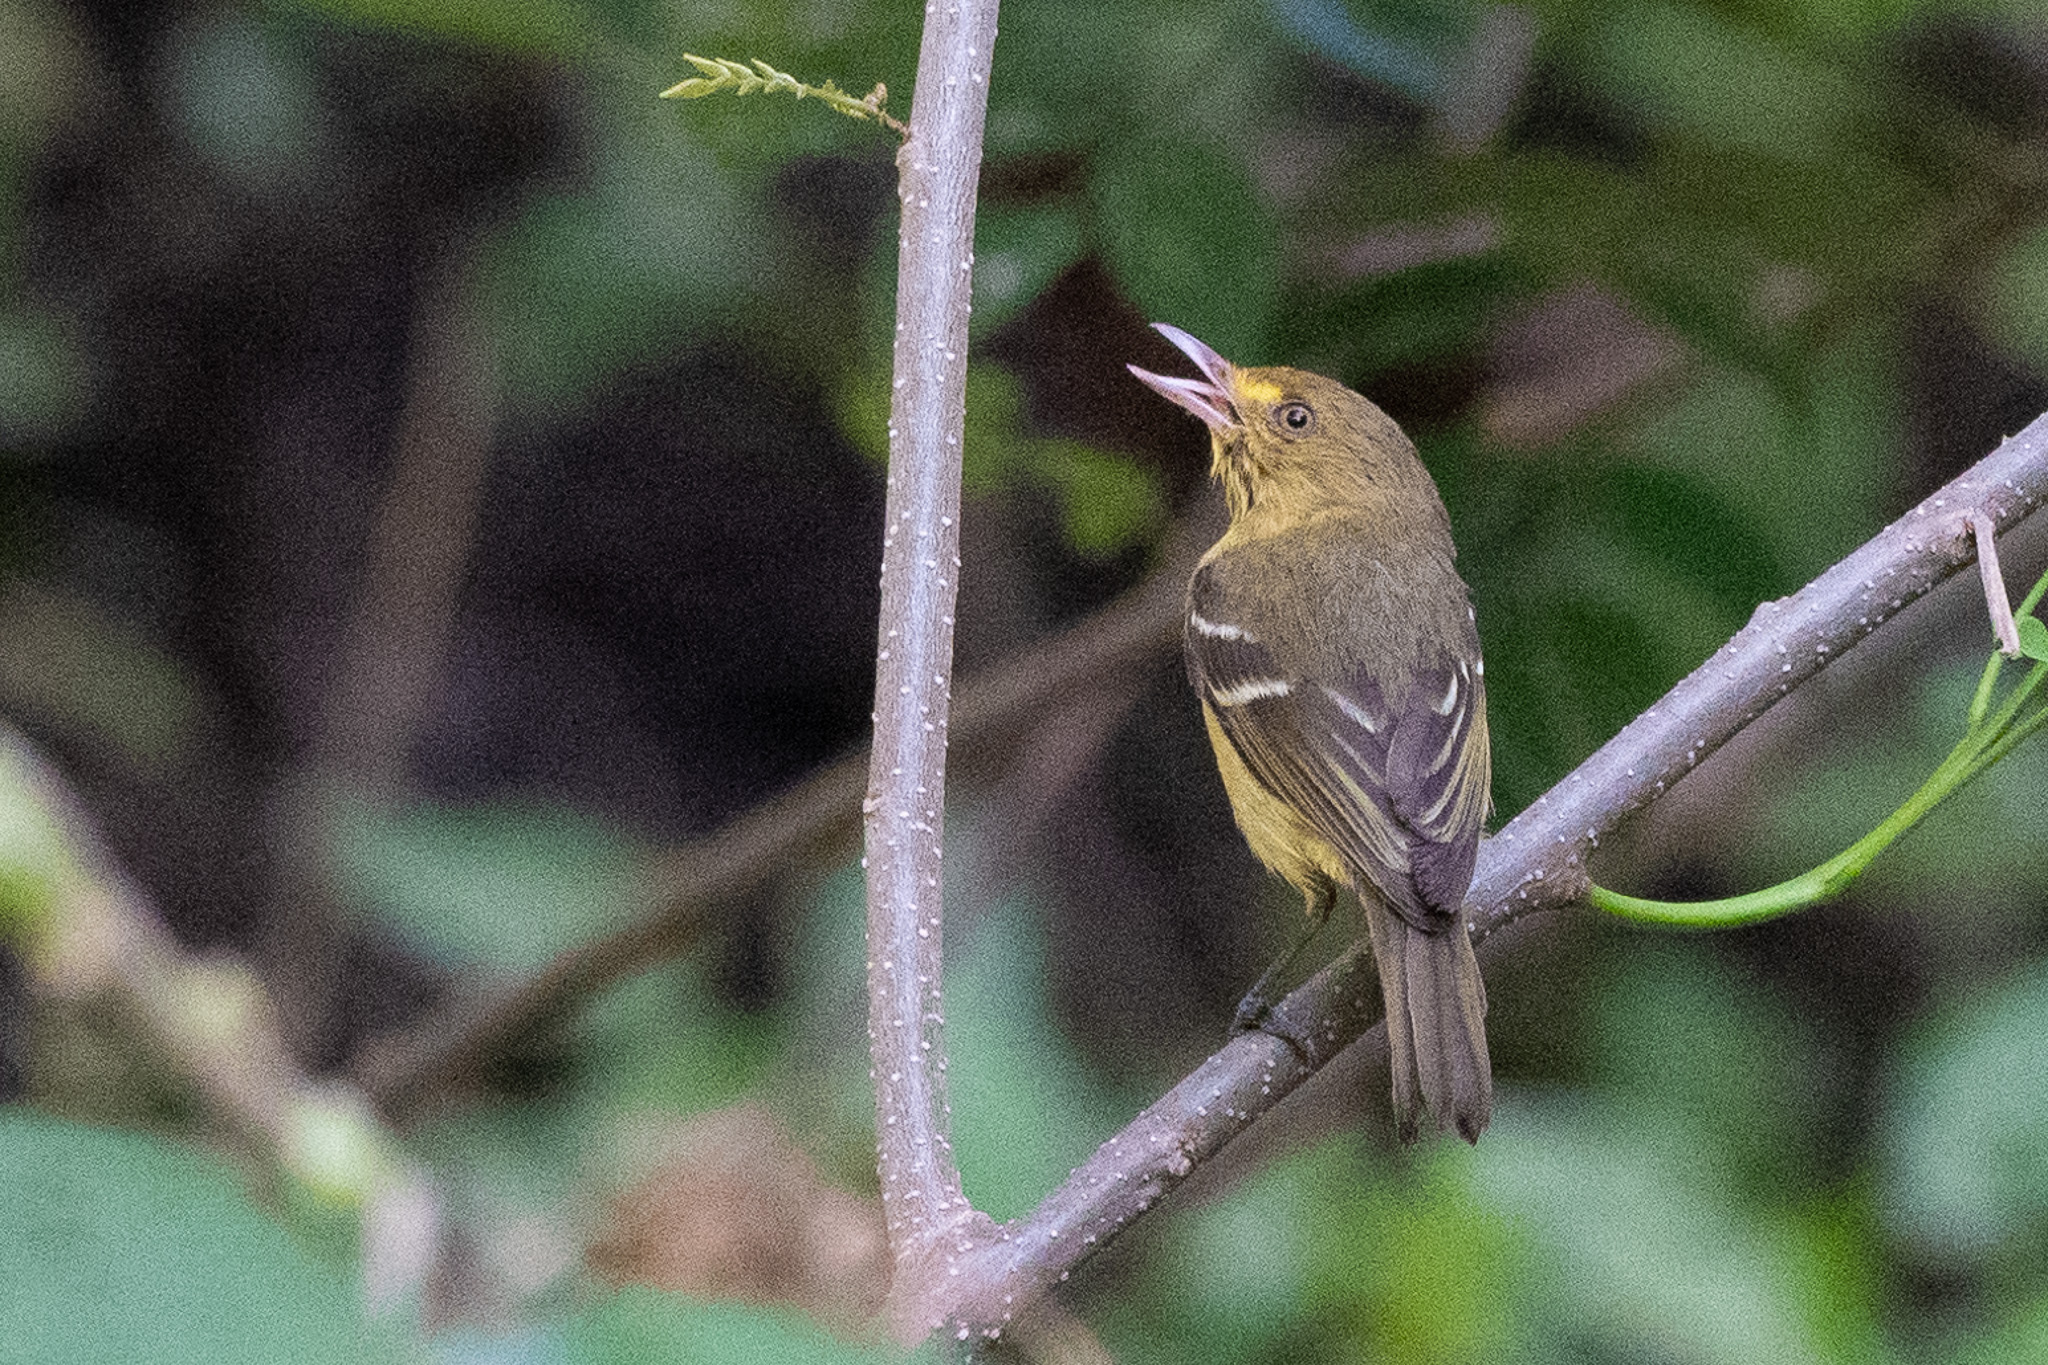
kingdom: Animalia
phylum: Chordata
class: Aves
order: Passeriformes
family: Vireonidae
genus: Vireo
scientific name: Vireo pallens
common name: Mangrove vireo
